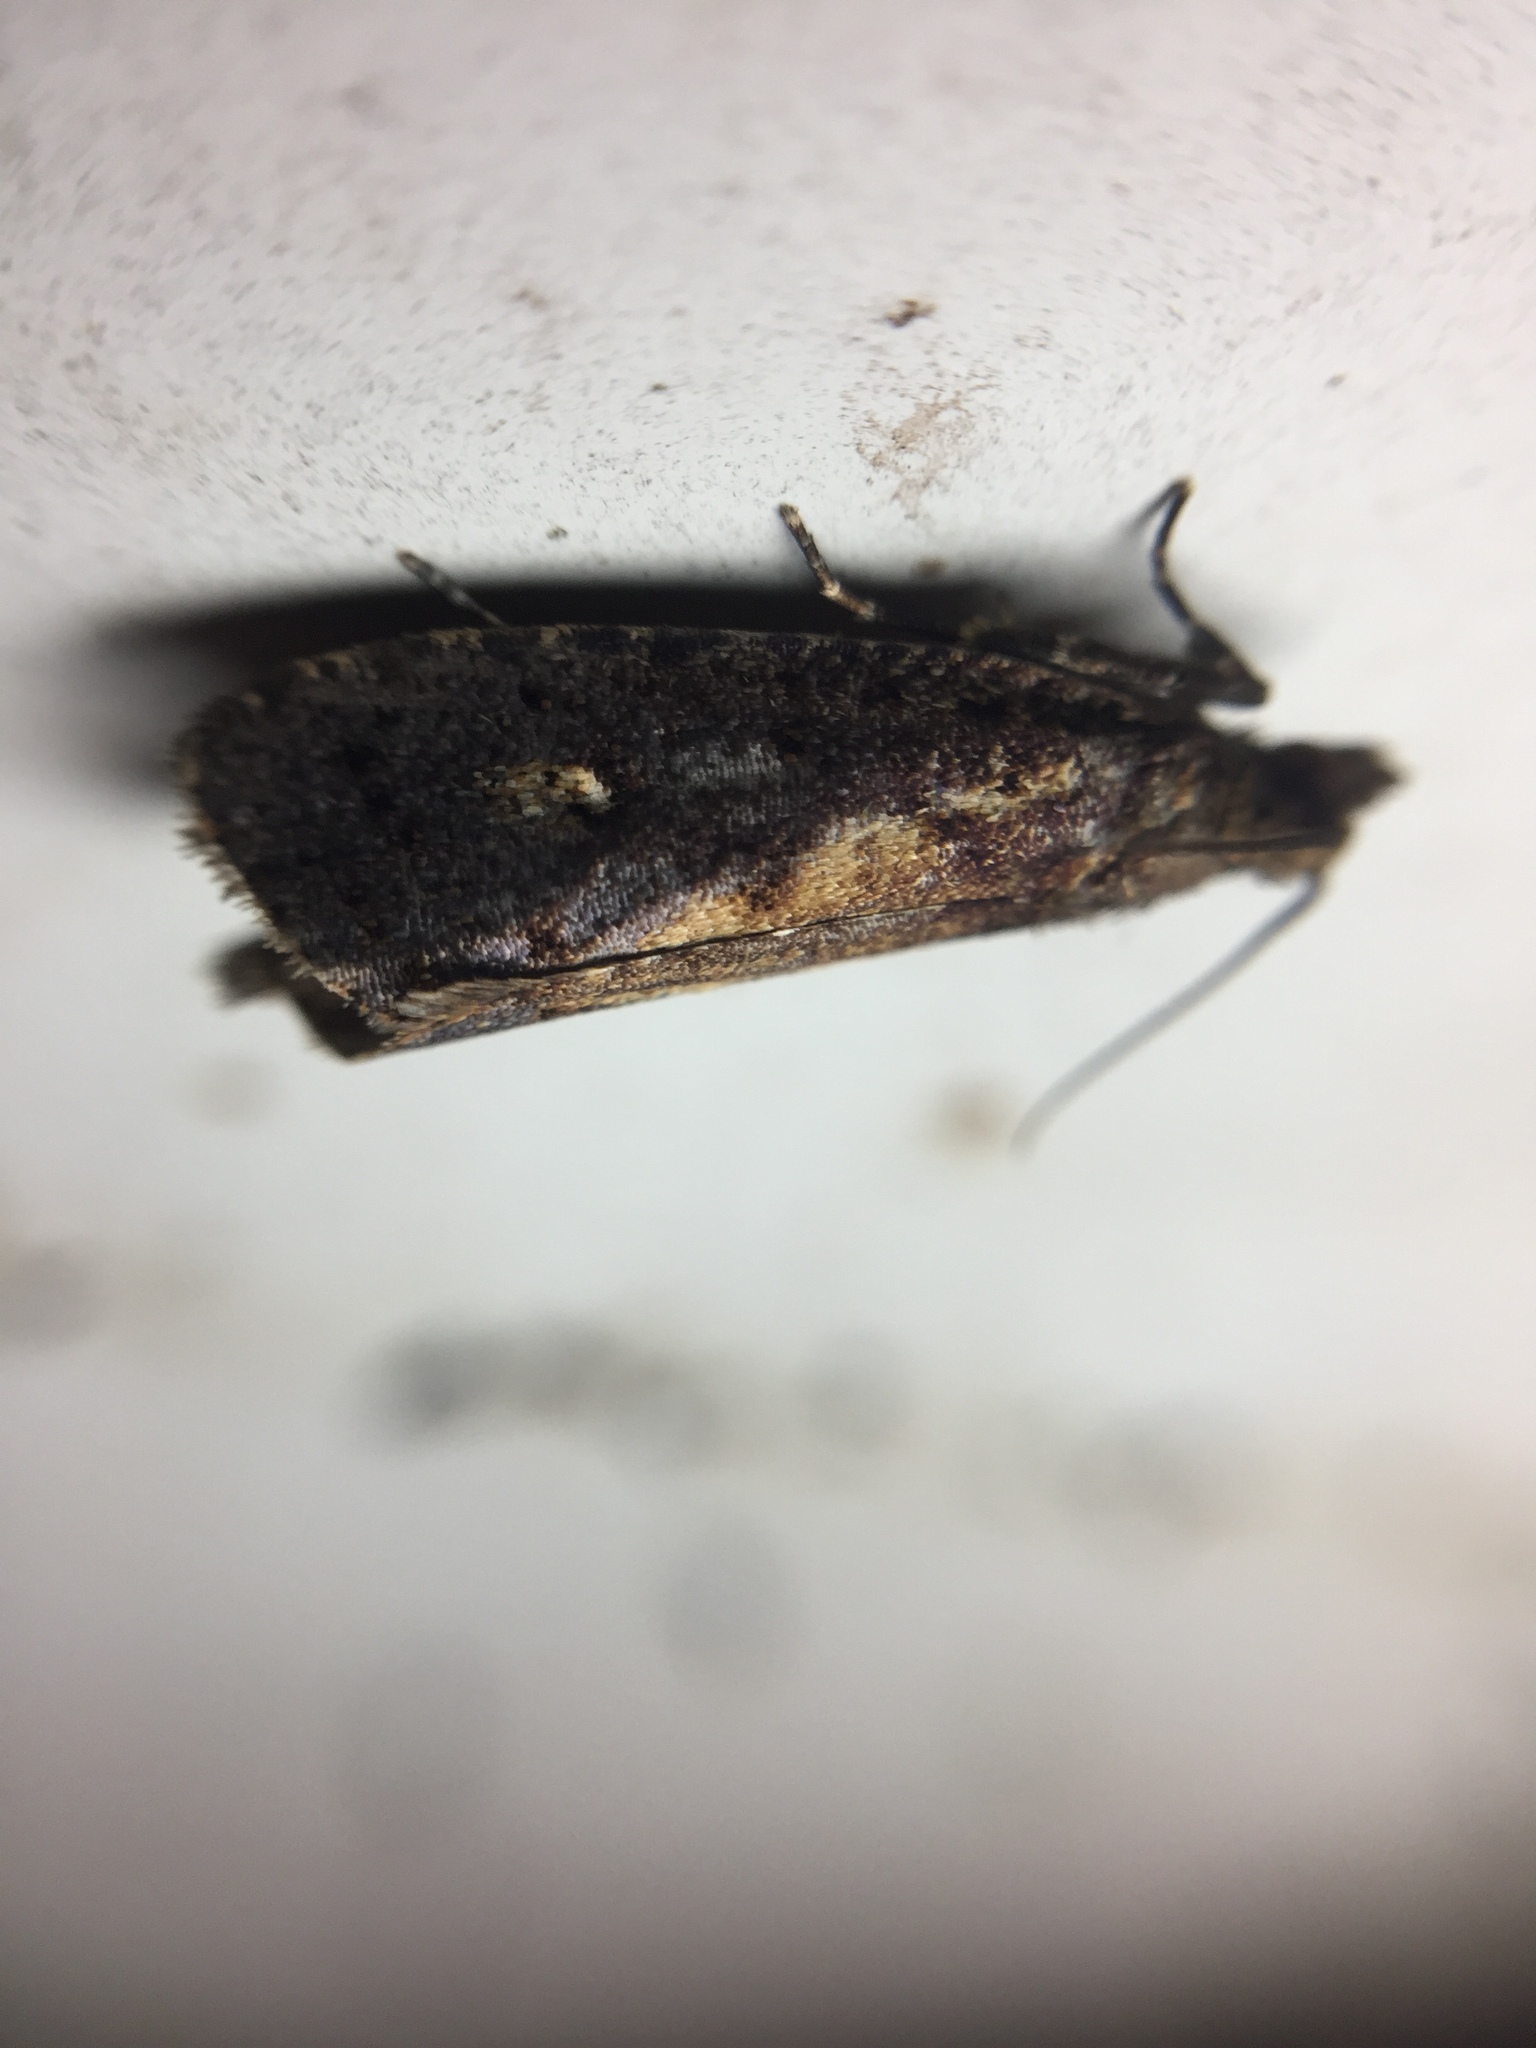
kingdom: Animalia
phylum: Arthropoda
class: Insecta
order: Lepidoptera
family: Tortricidae
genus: Cryptaspasma
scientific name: Cryptaspasma querula
